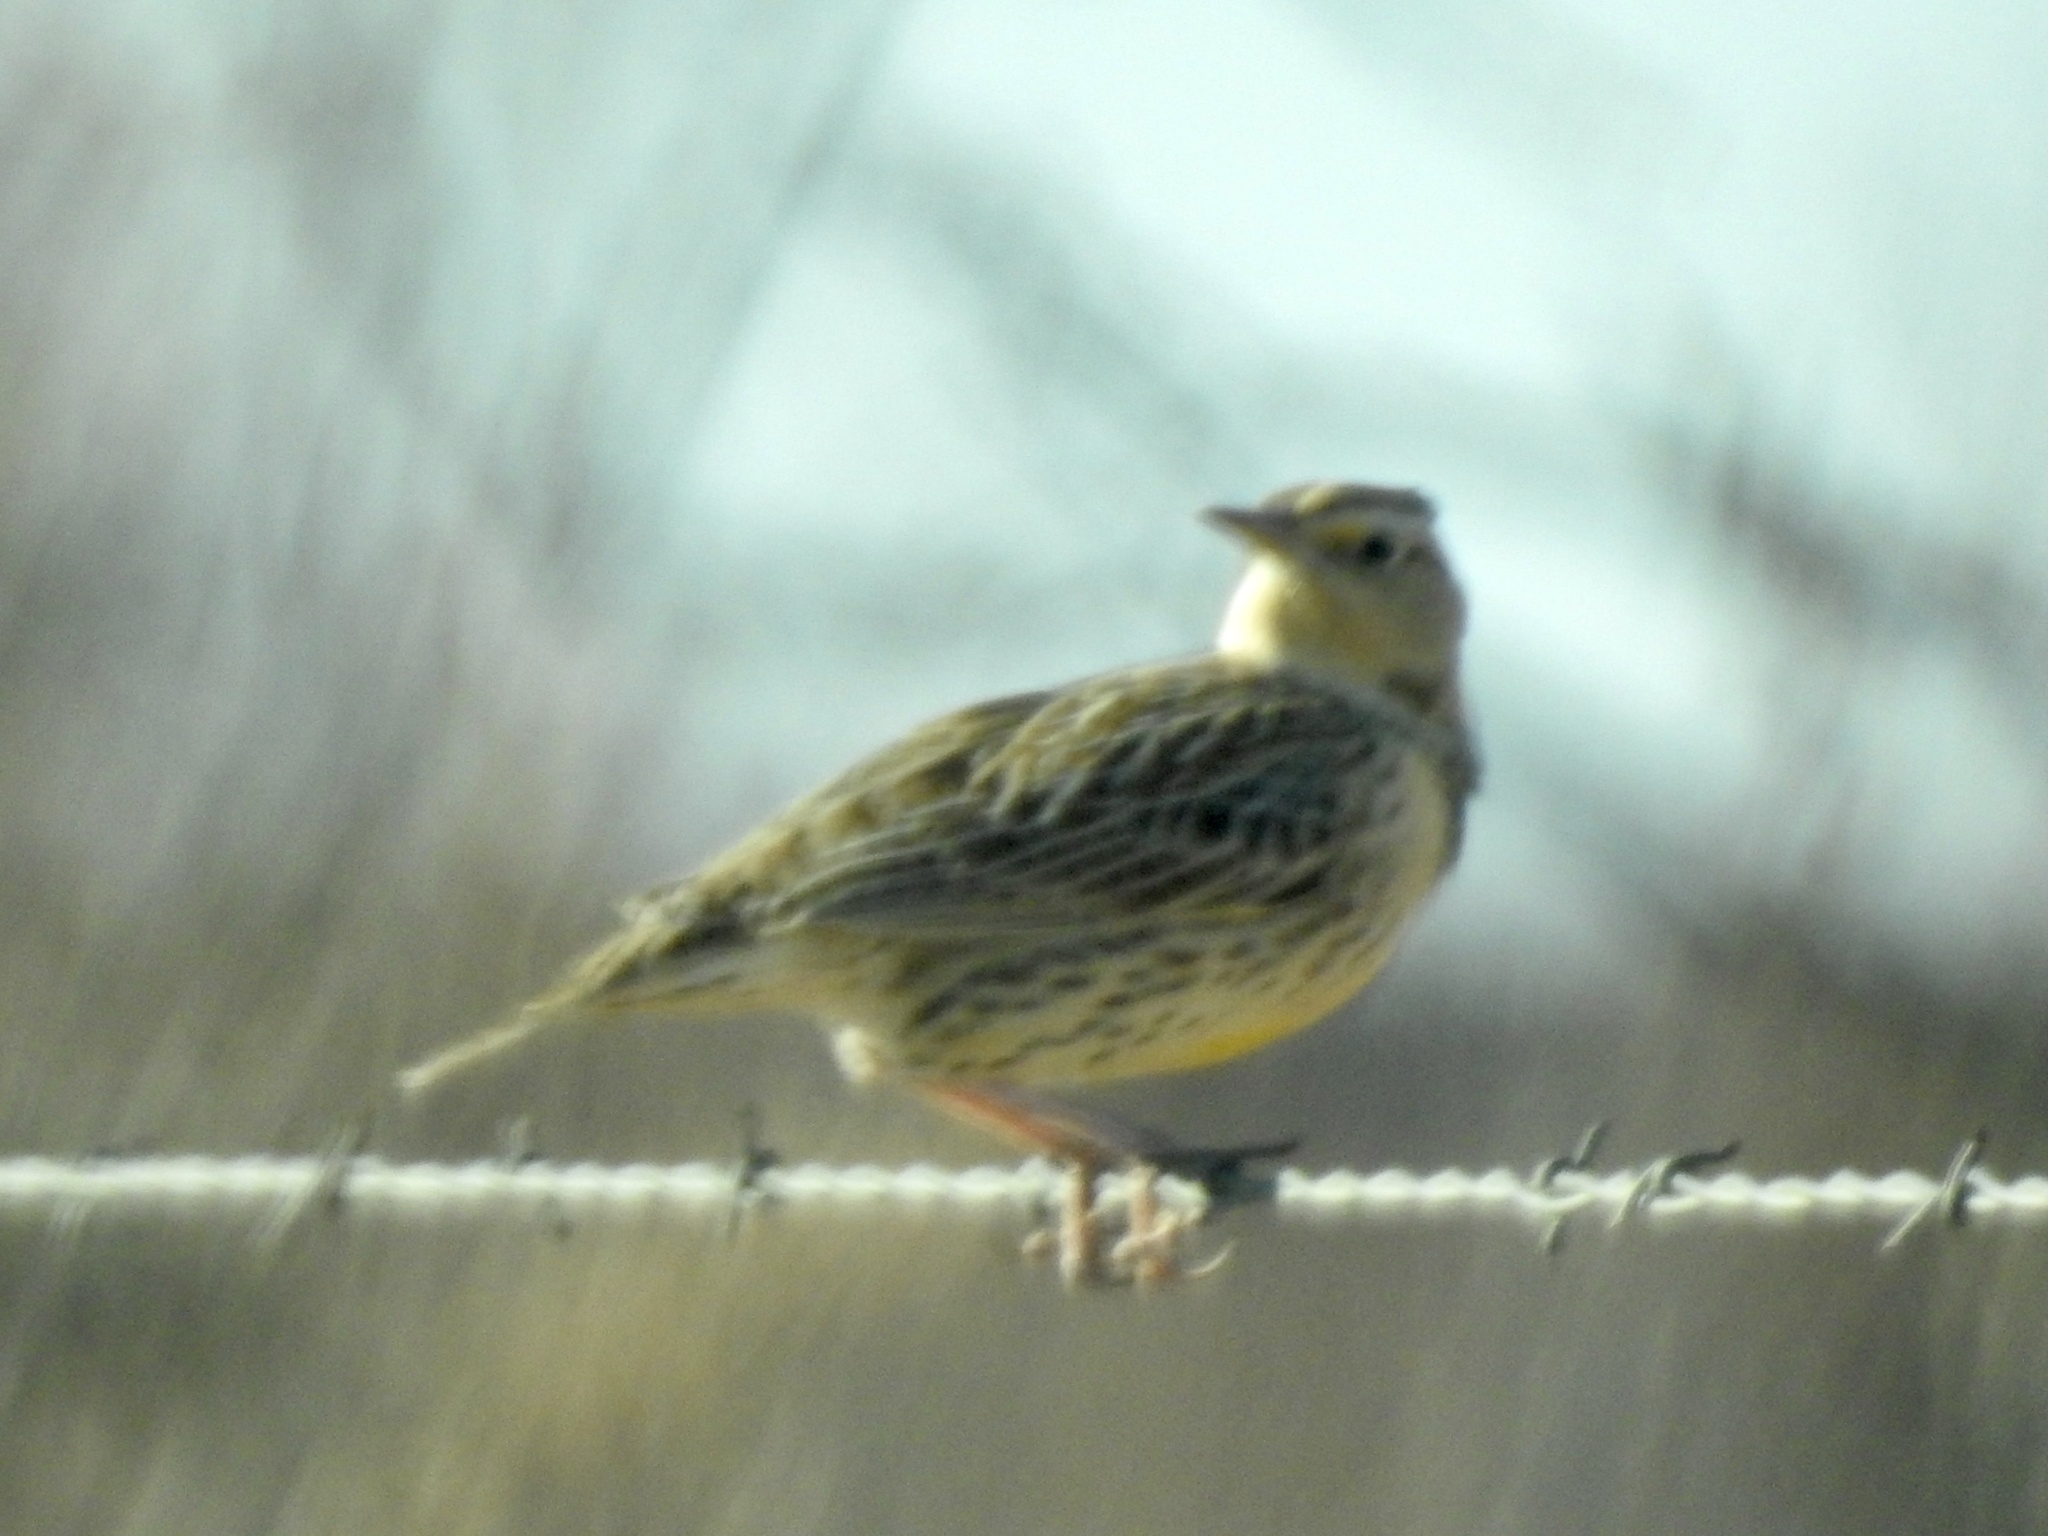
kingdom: Animalia
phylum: Chordata
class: Aves
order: Passeriformes
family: Icteridae
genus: Sturnella
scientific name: Sturnella neglecta
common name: Western meadowlark
